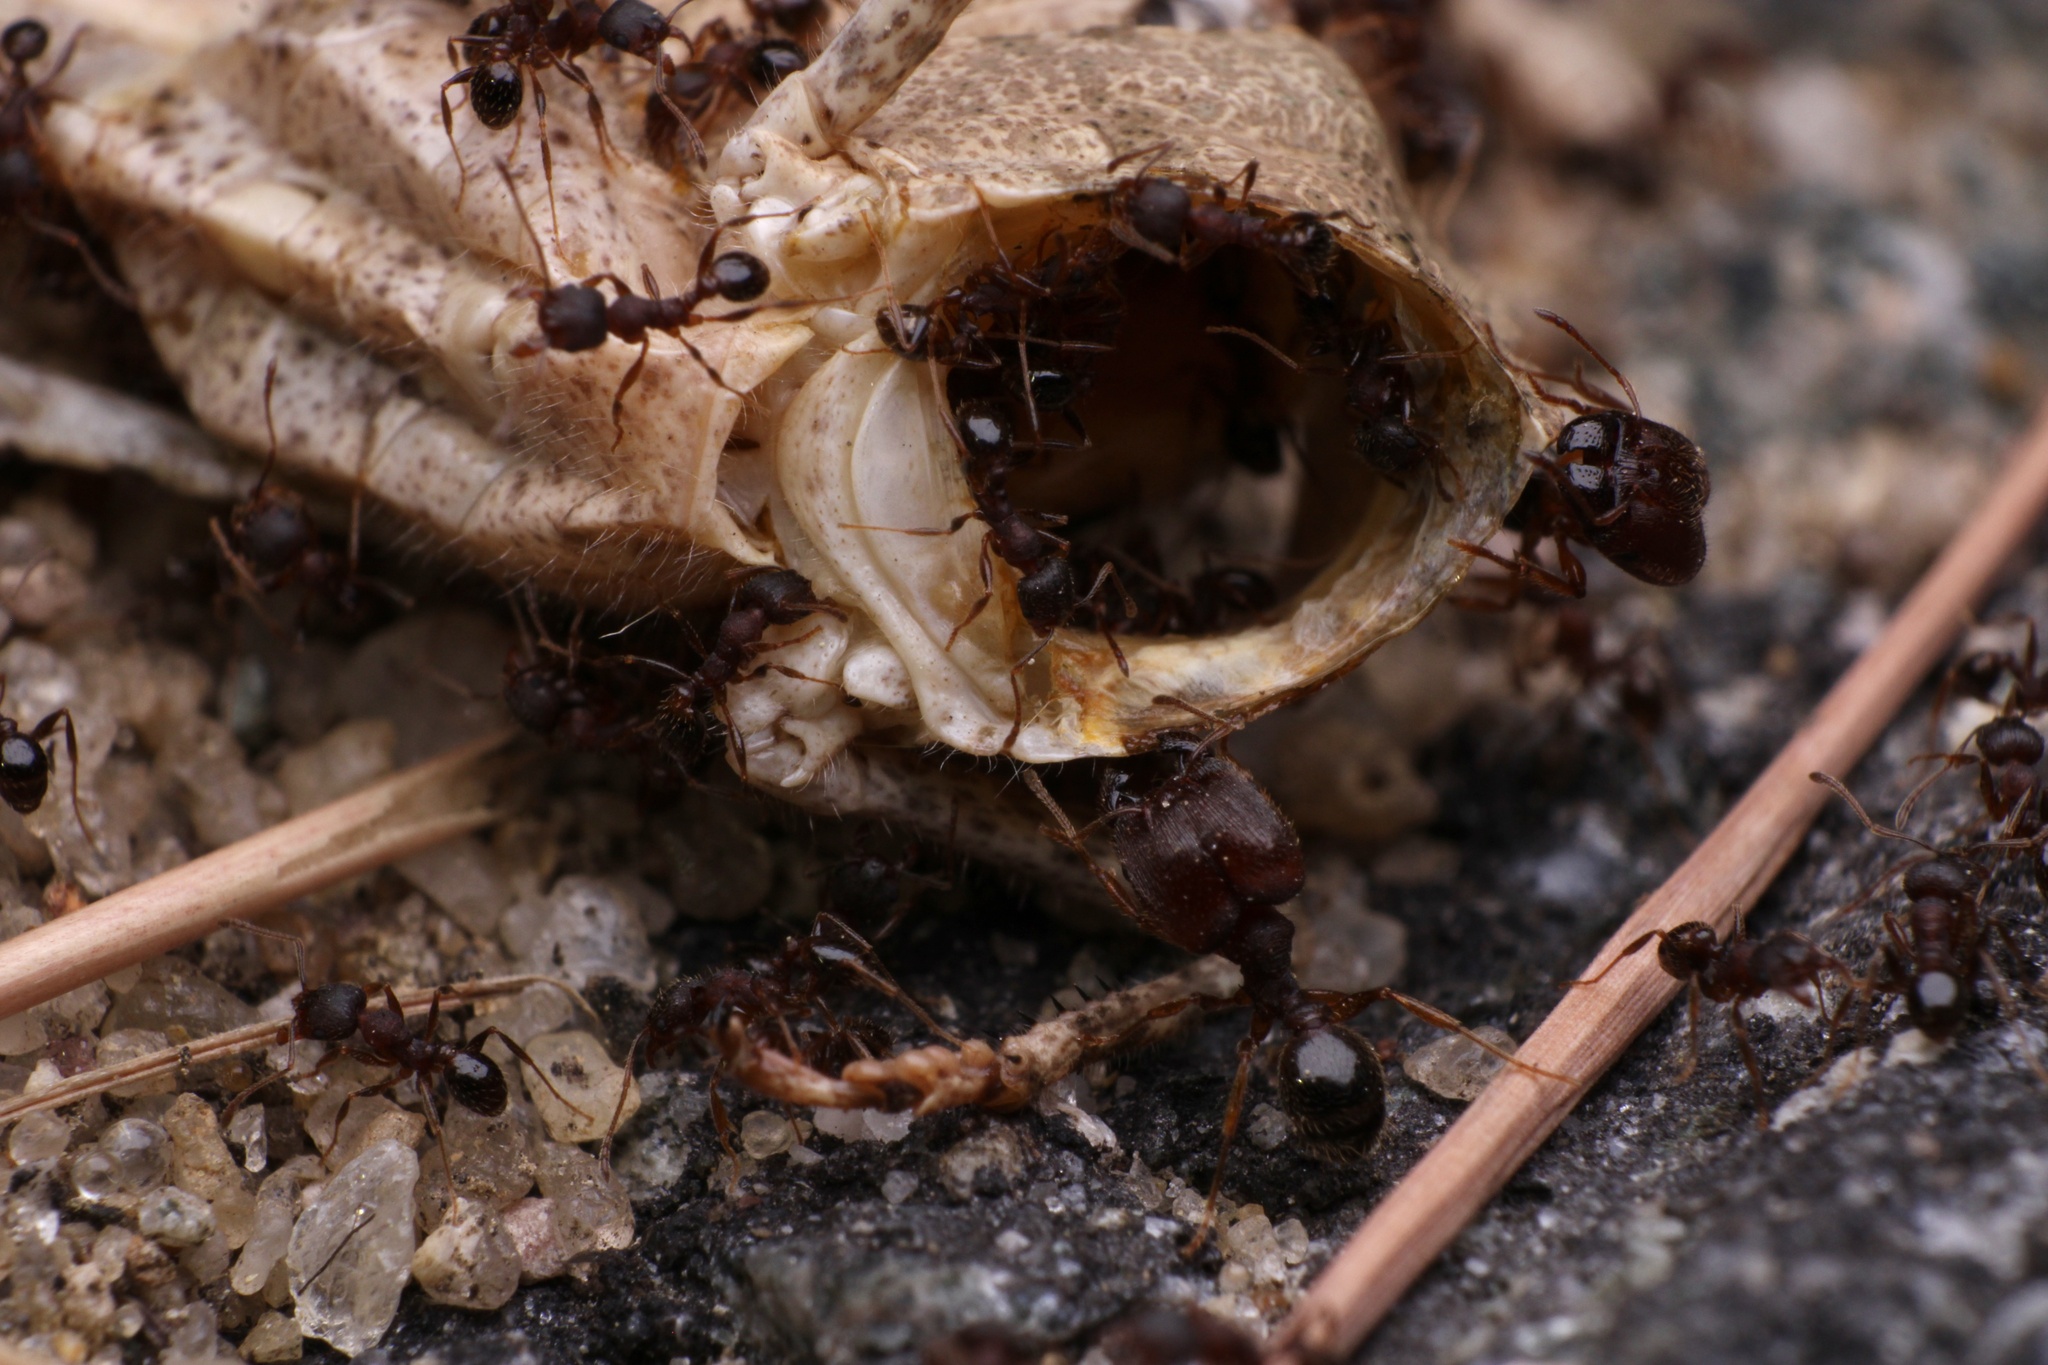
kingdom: Animalia
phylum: Arthropoda
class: Insecta
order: Hymenoptera
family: Formicidae
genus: Pheidole
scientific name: Pheidole pilifera
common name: Hairy big-headed ant
